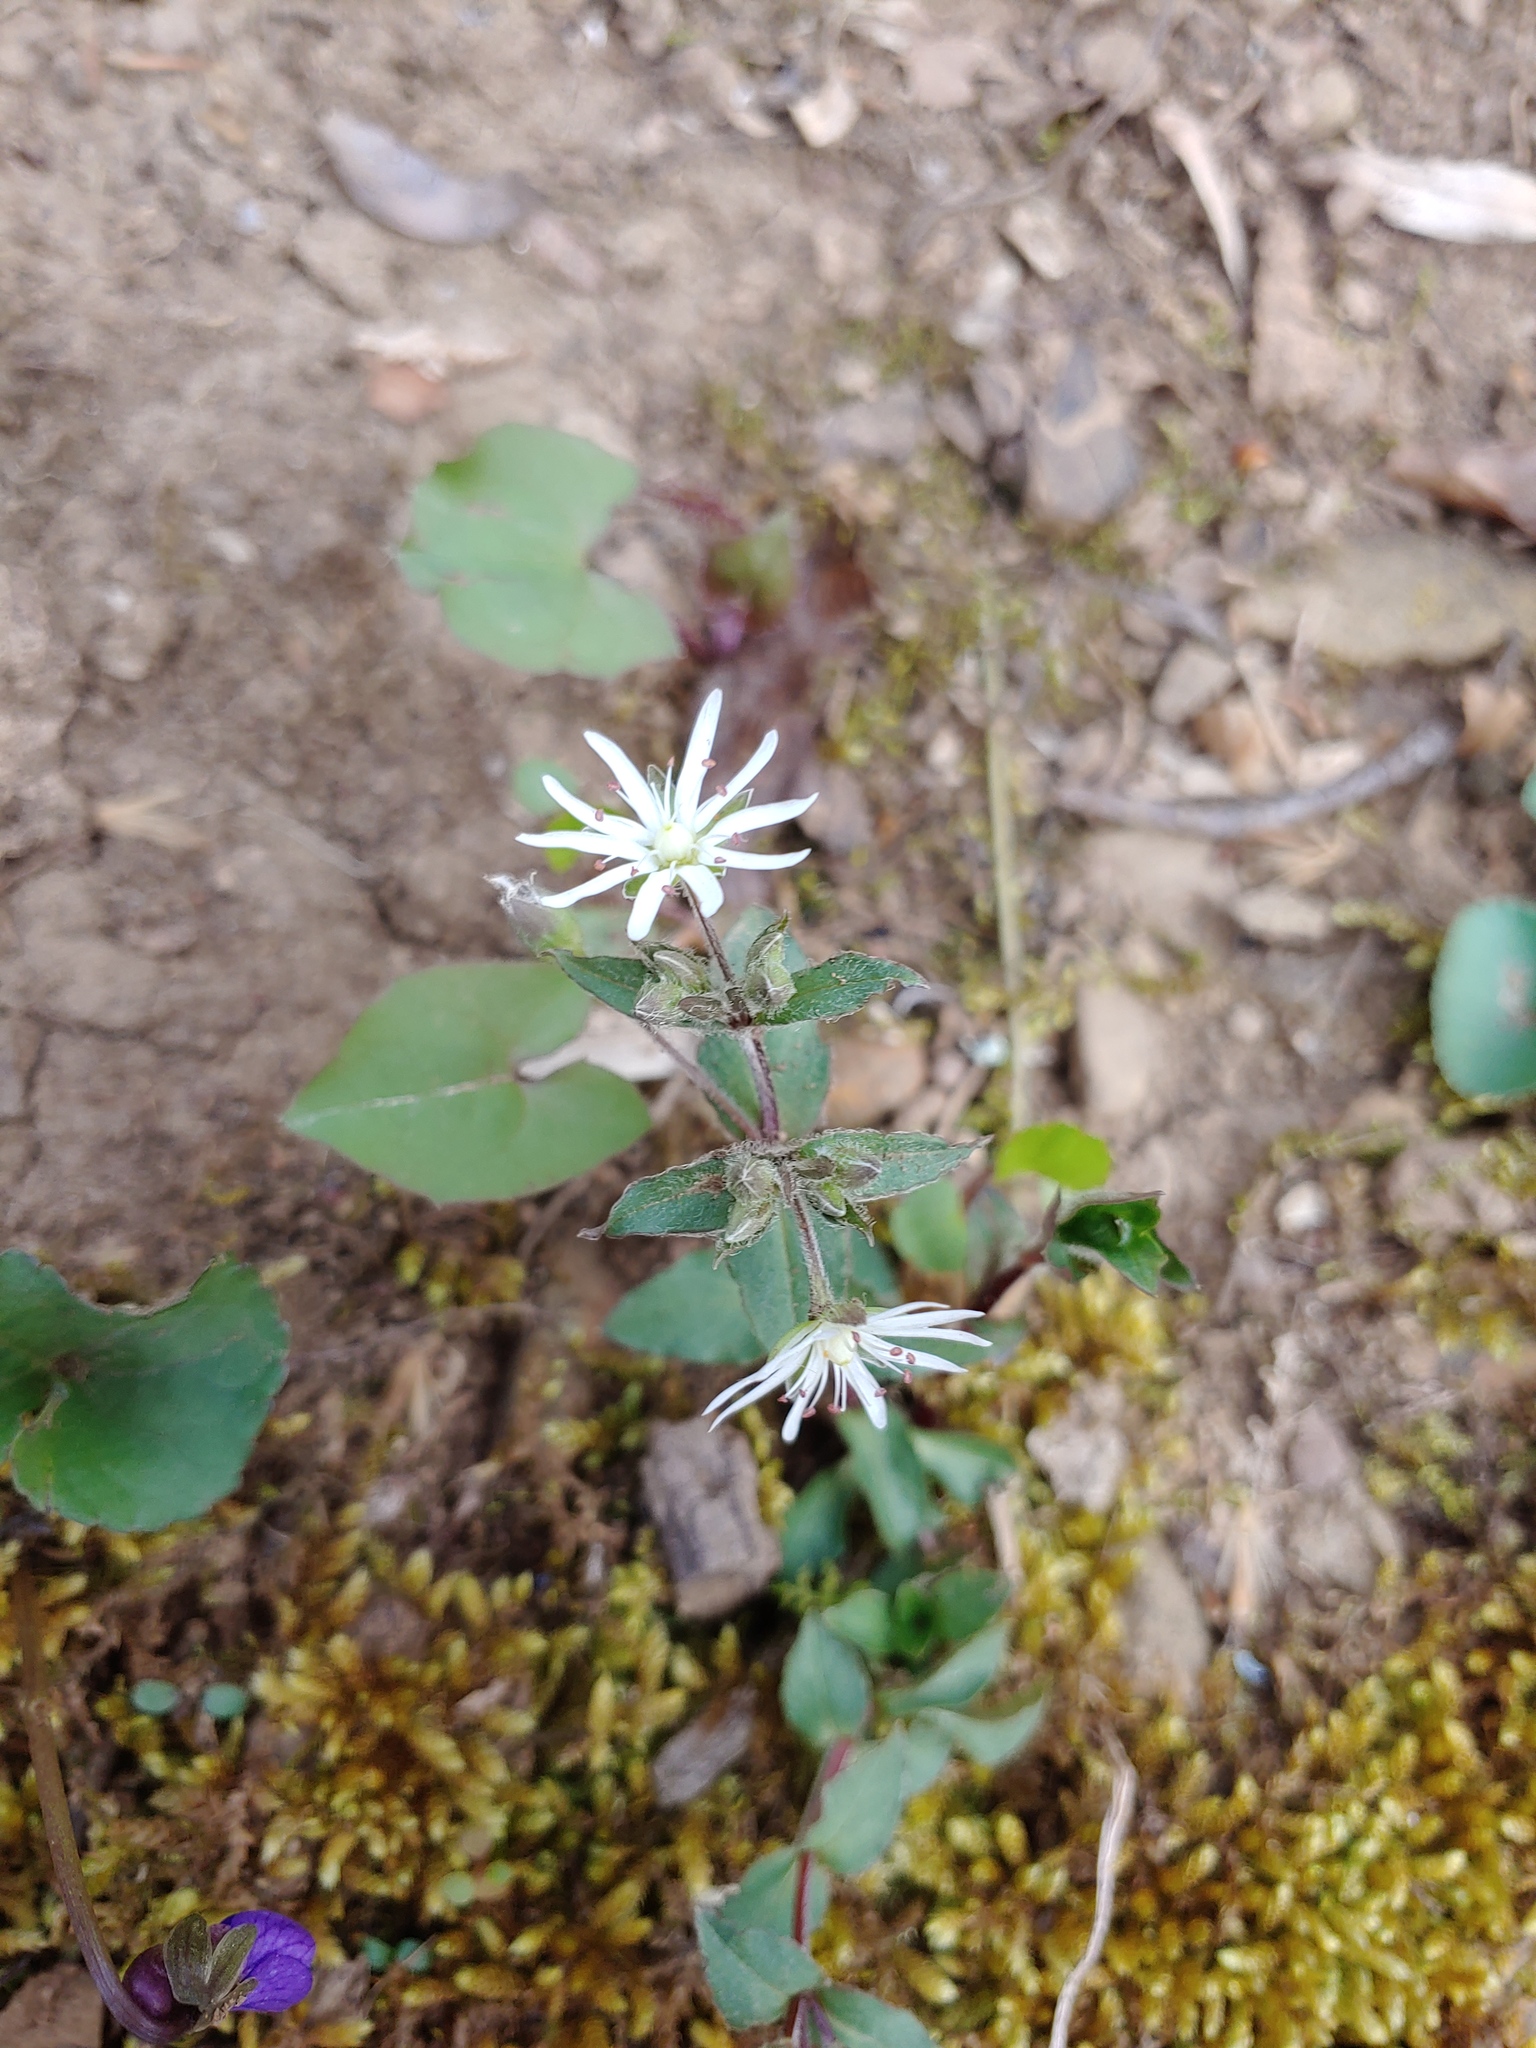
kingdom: Plantae
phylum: Tracheophyta
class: Magnoliopsida
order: Caryophyllales
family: Caryophyllaceae
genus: Stellaria
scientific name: Stellaria pubera
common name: Star chickweed
